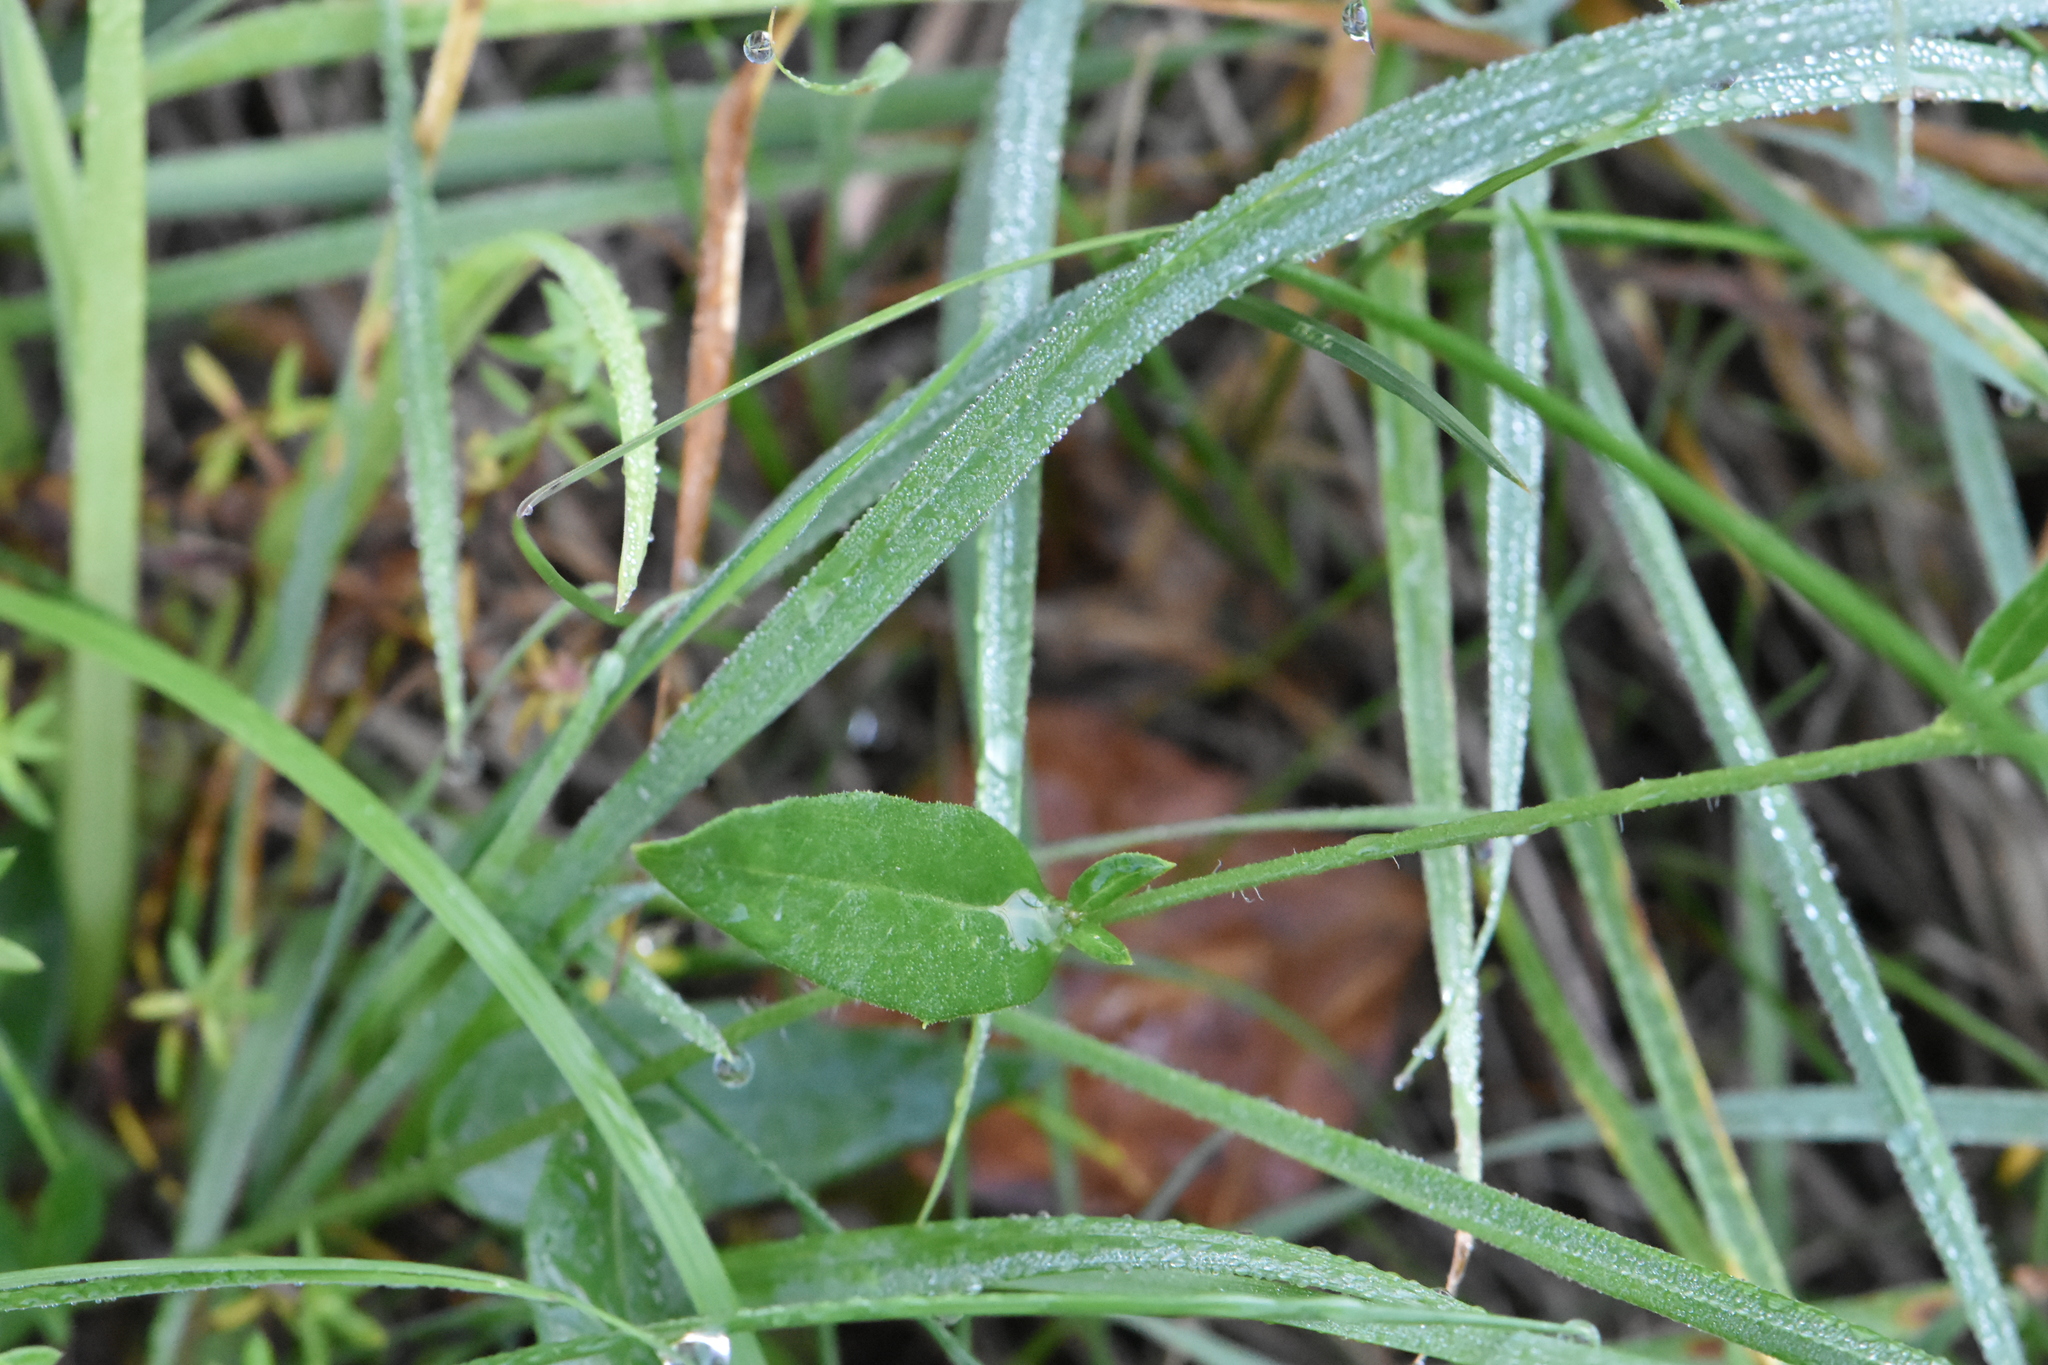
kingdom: Plantae
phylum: Tracheophyta
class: Magnoliopsida
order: Asterales
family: Asteraceae
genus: Hieracium
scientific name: Hieracium umbellatum
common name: Northern hawkweed
